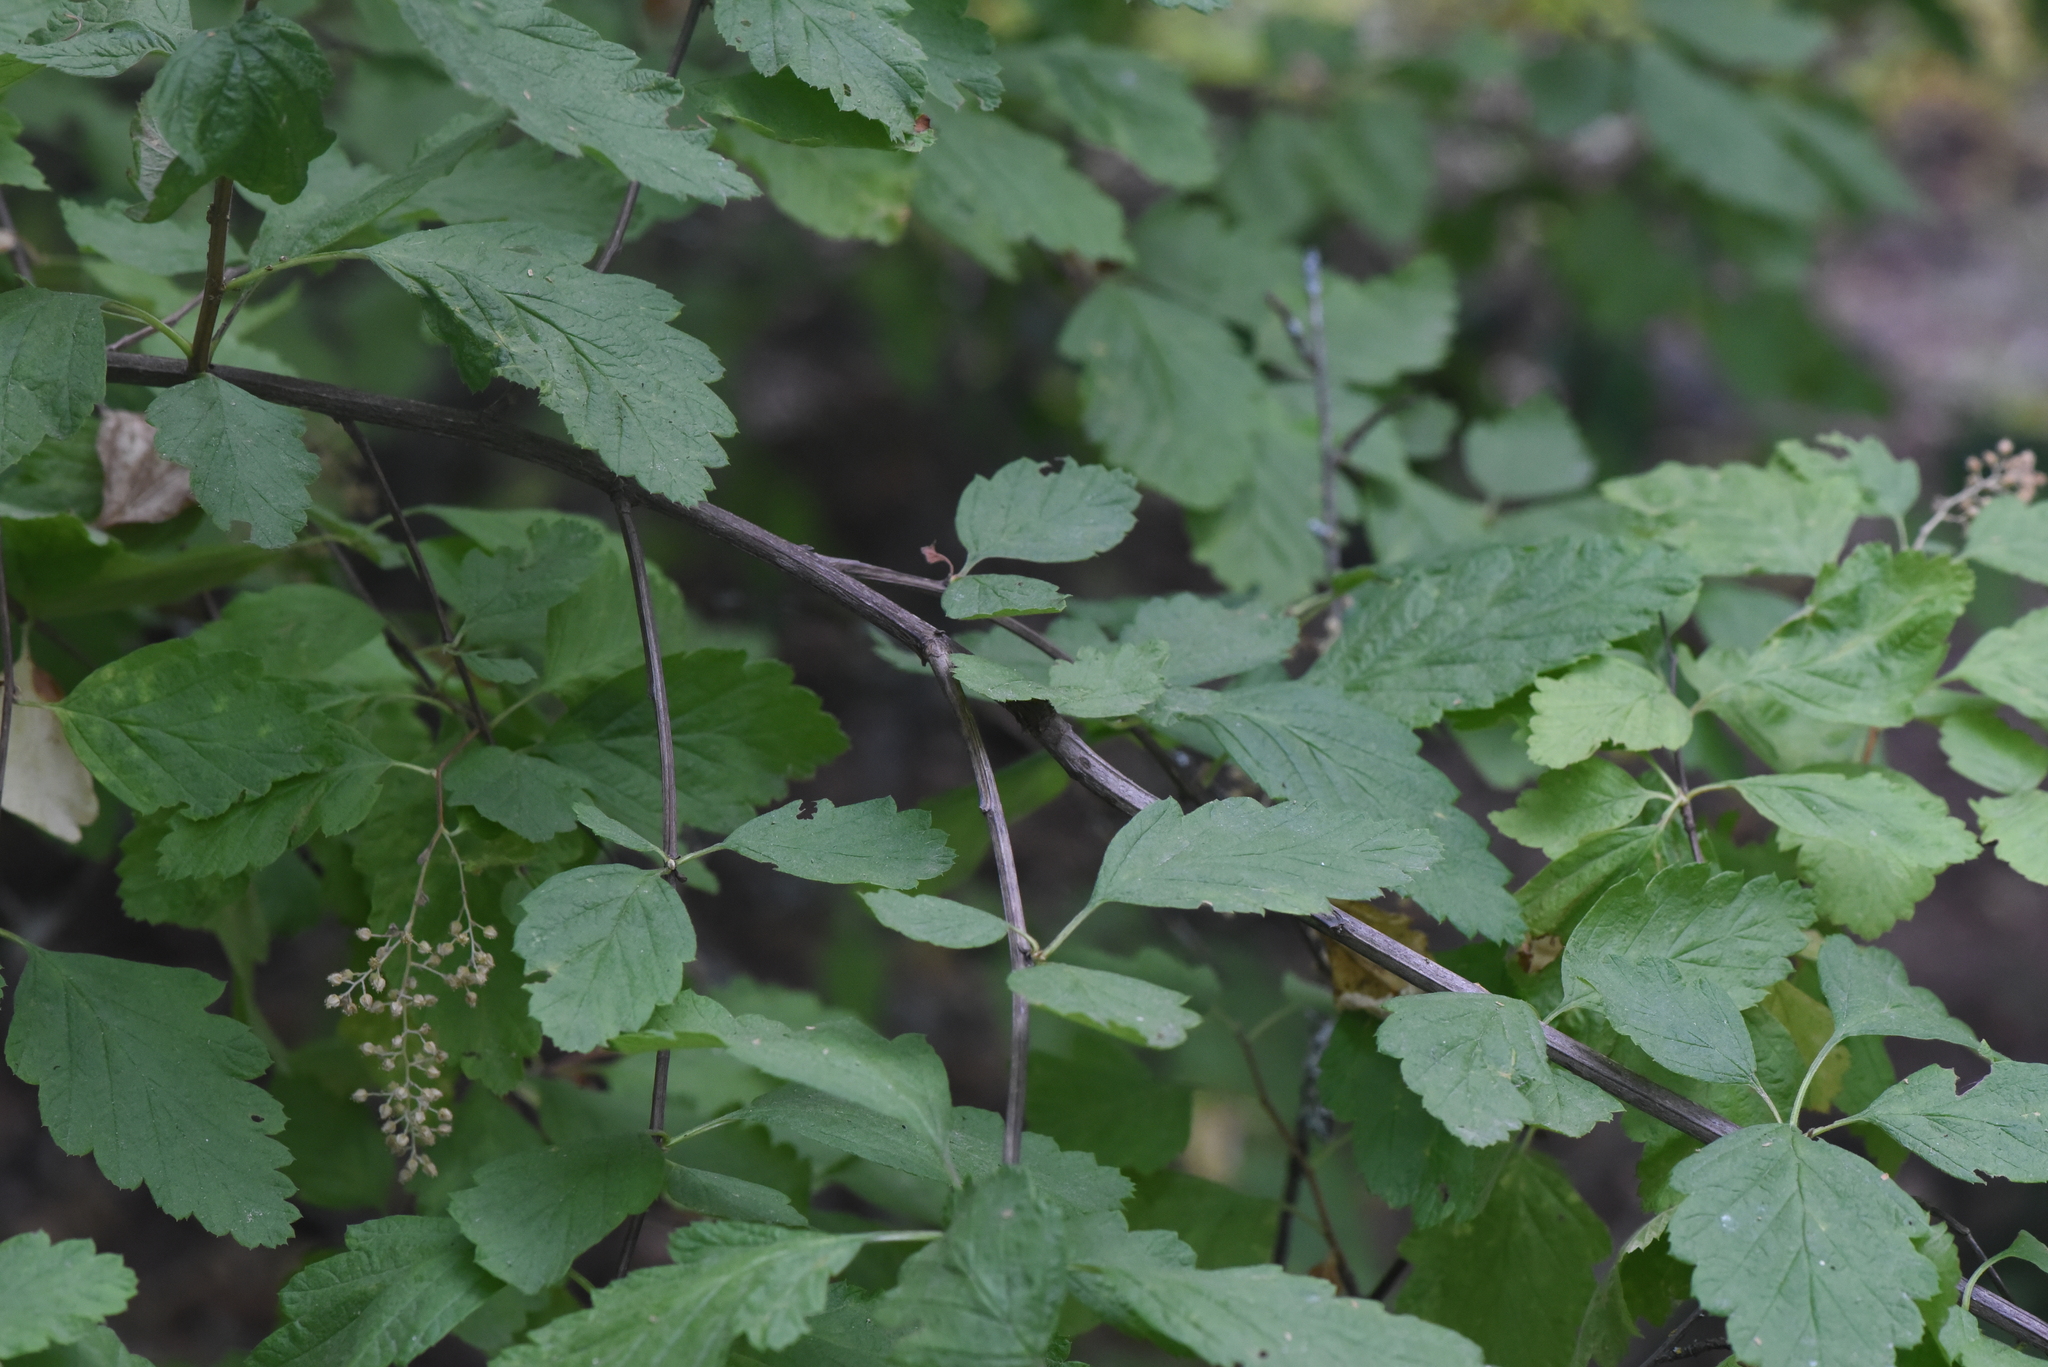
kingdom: Plantae
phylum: Tracheophyta
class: Magnoliopsida
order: Rosales
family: Rosaceae
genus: Holodiscus
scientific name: Holodiscus discolor
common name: Oceanspray
